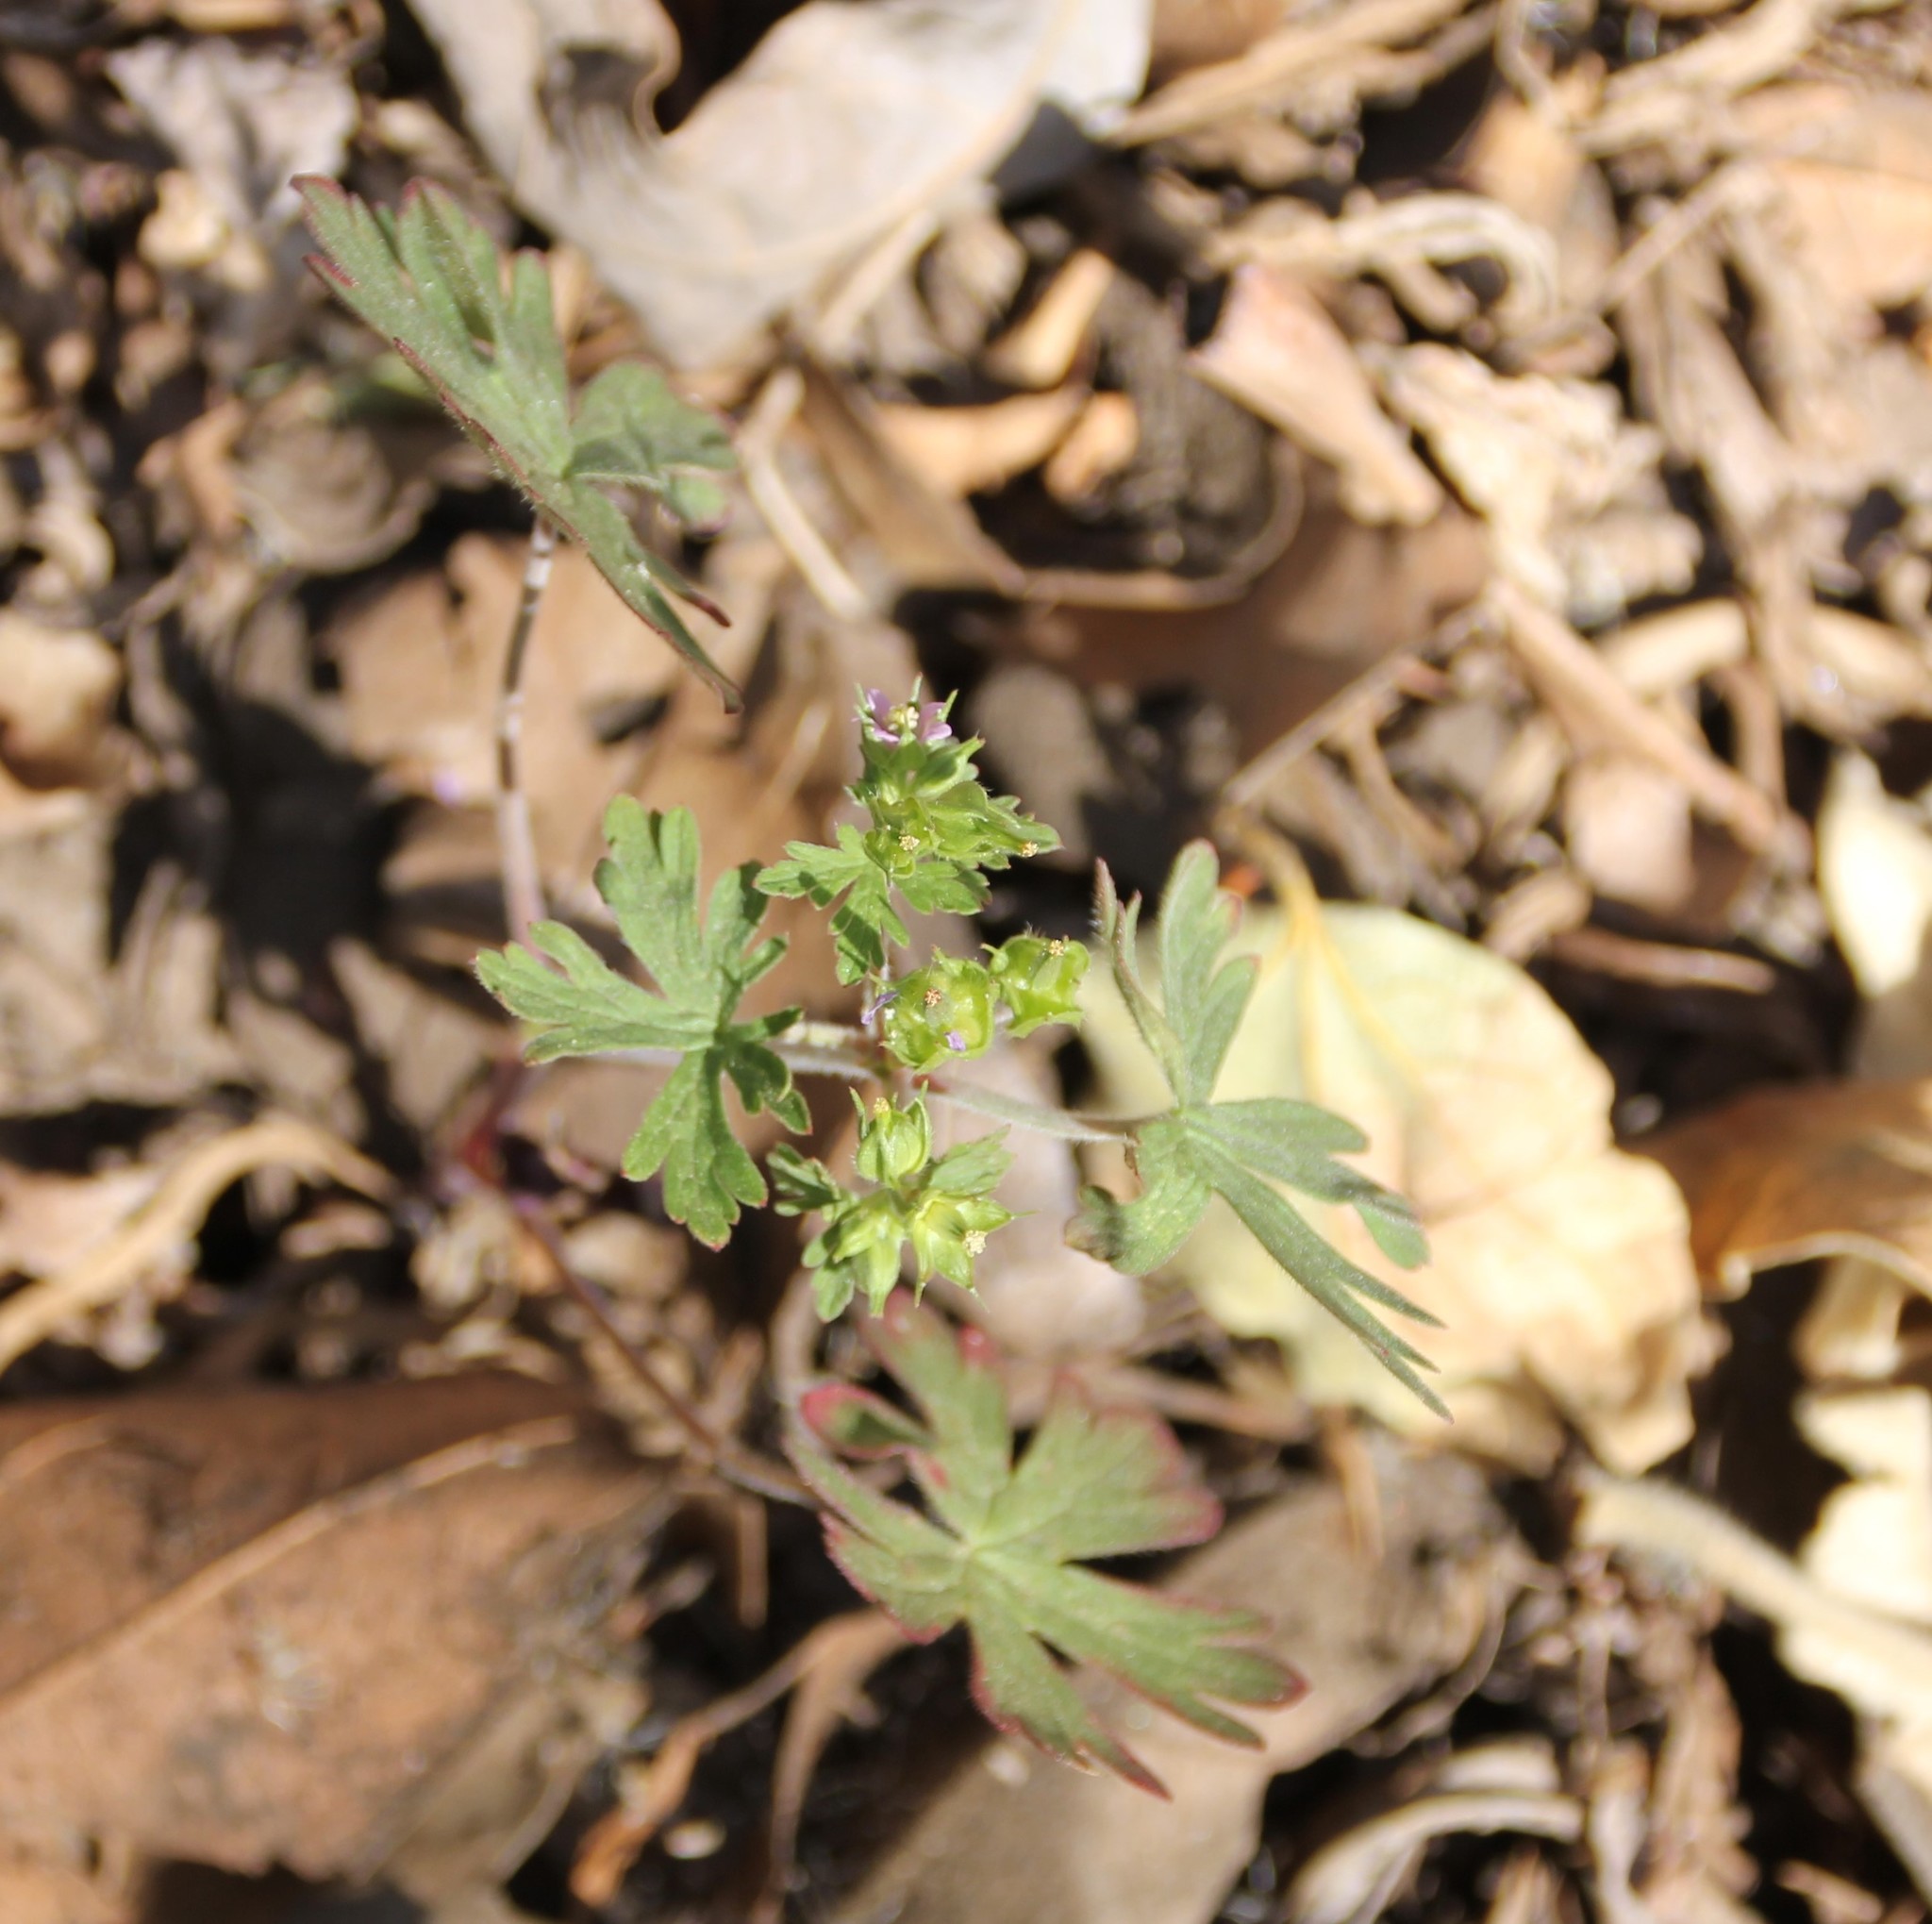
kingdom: Plantae
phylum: Tracheophyta
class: Magnoliopsida
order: Geraniales
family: Geraniaceae
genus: Geranium
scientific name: Geranium carolinianum
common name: Carolina crane's-bill
